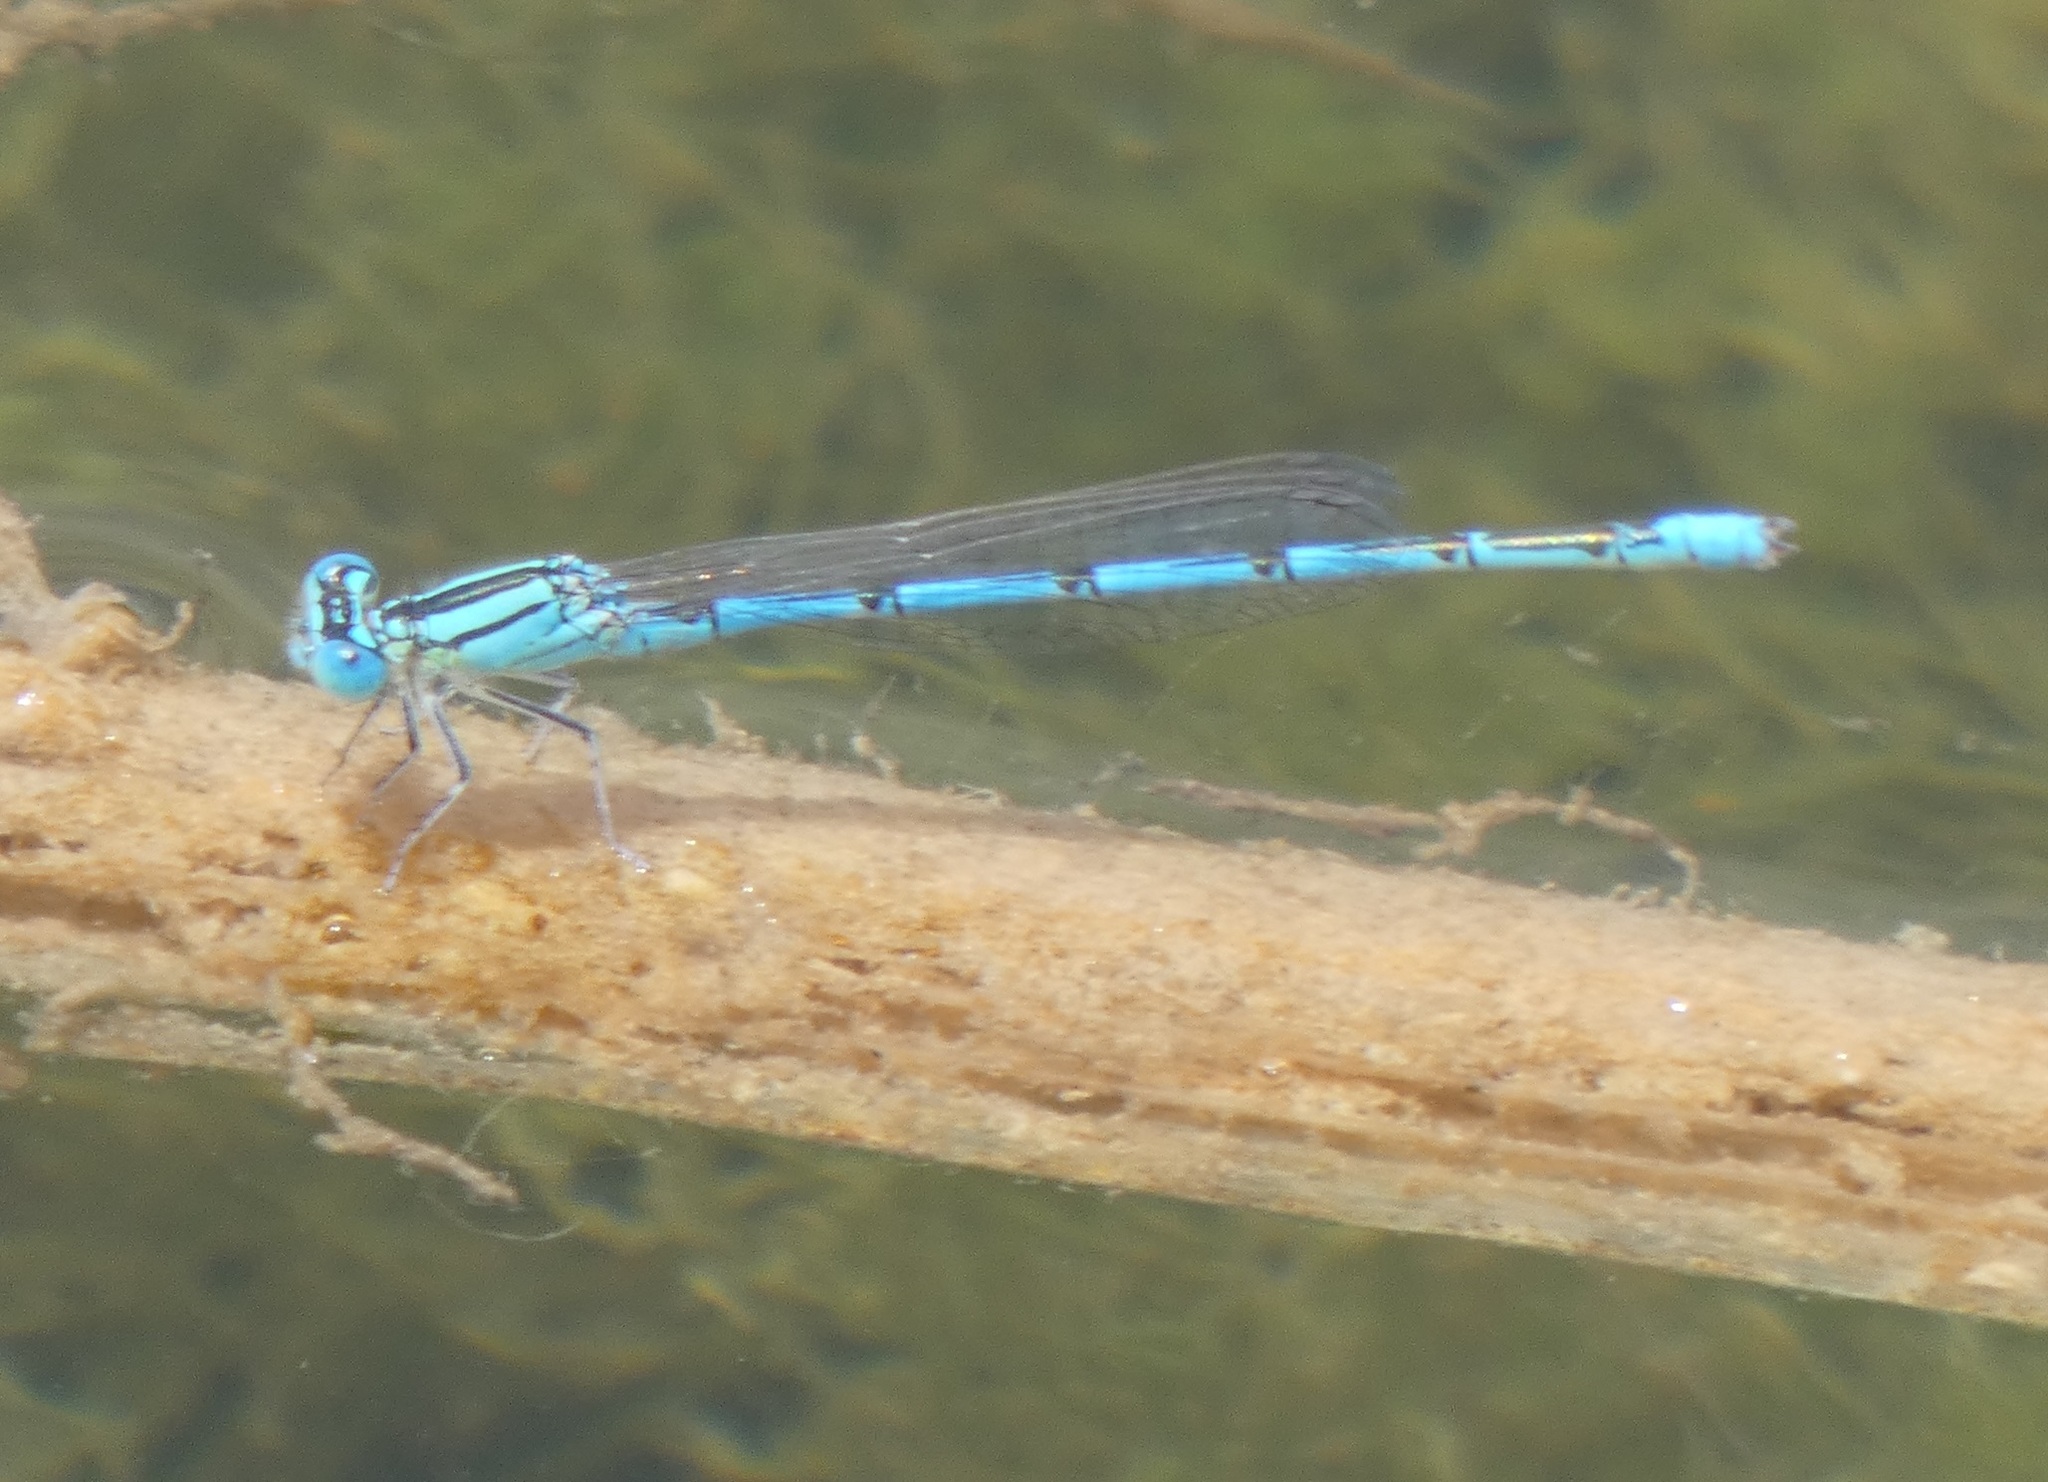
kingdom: Animalia
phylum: Arthropoda
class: Insecta
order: Odonata
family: Coenagrionidae
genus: Erythromma
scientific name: Erythromma lindenii
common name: Blue-eye
